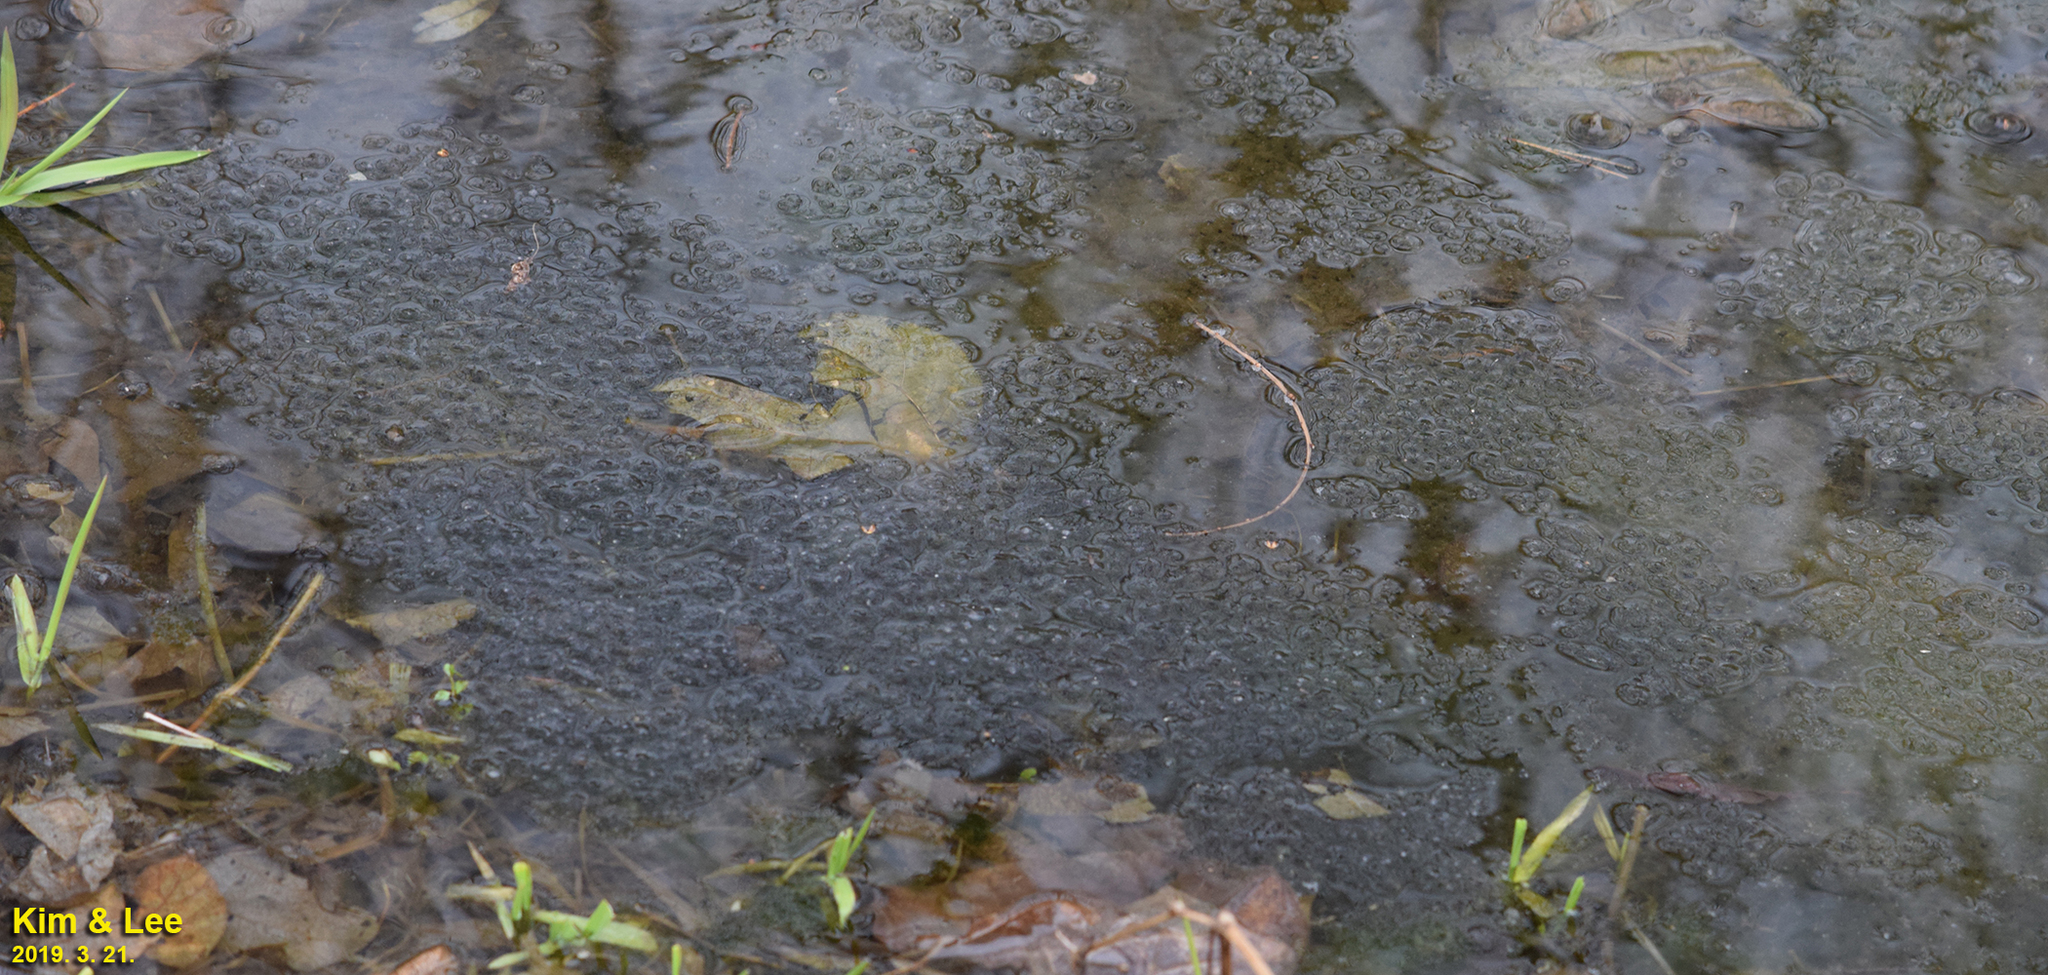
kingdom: Animalia
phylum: Chordata
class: Amphibia
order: Anura
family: Ranidae
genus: Rana
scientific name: Rana uenoi
